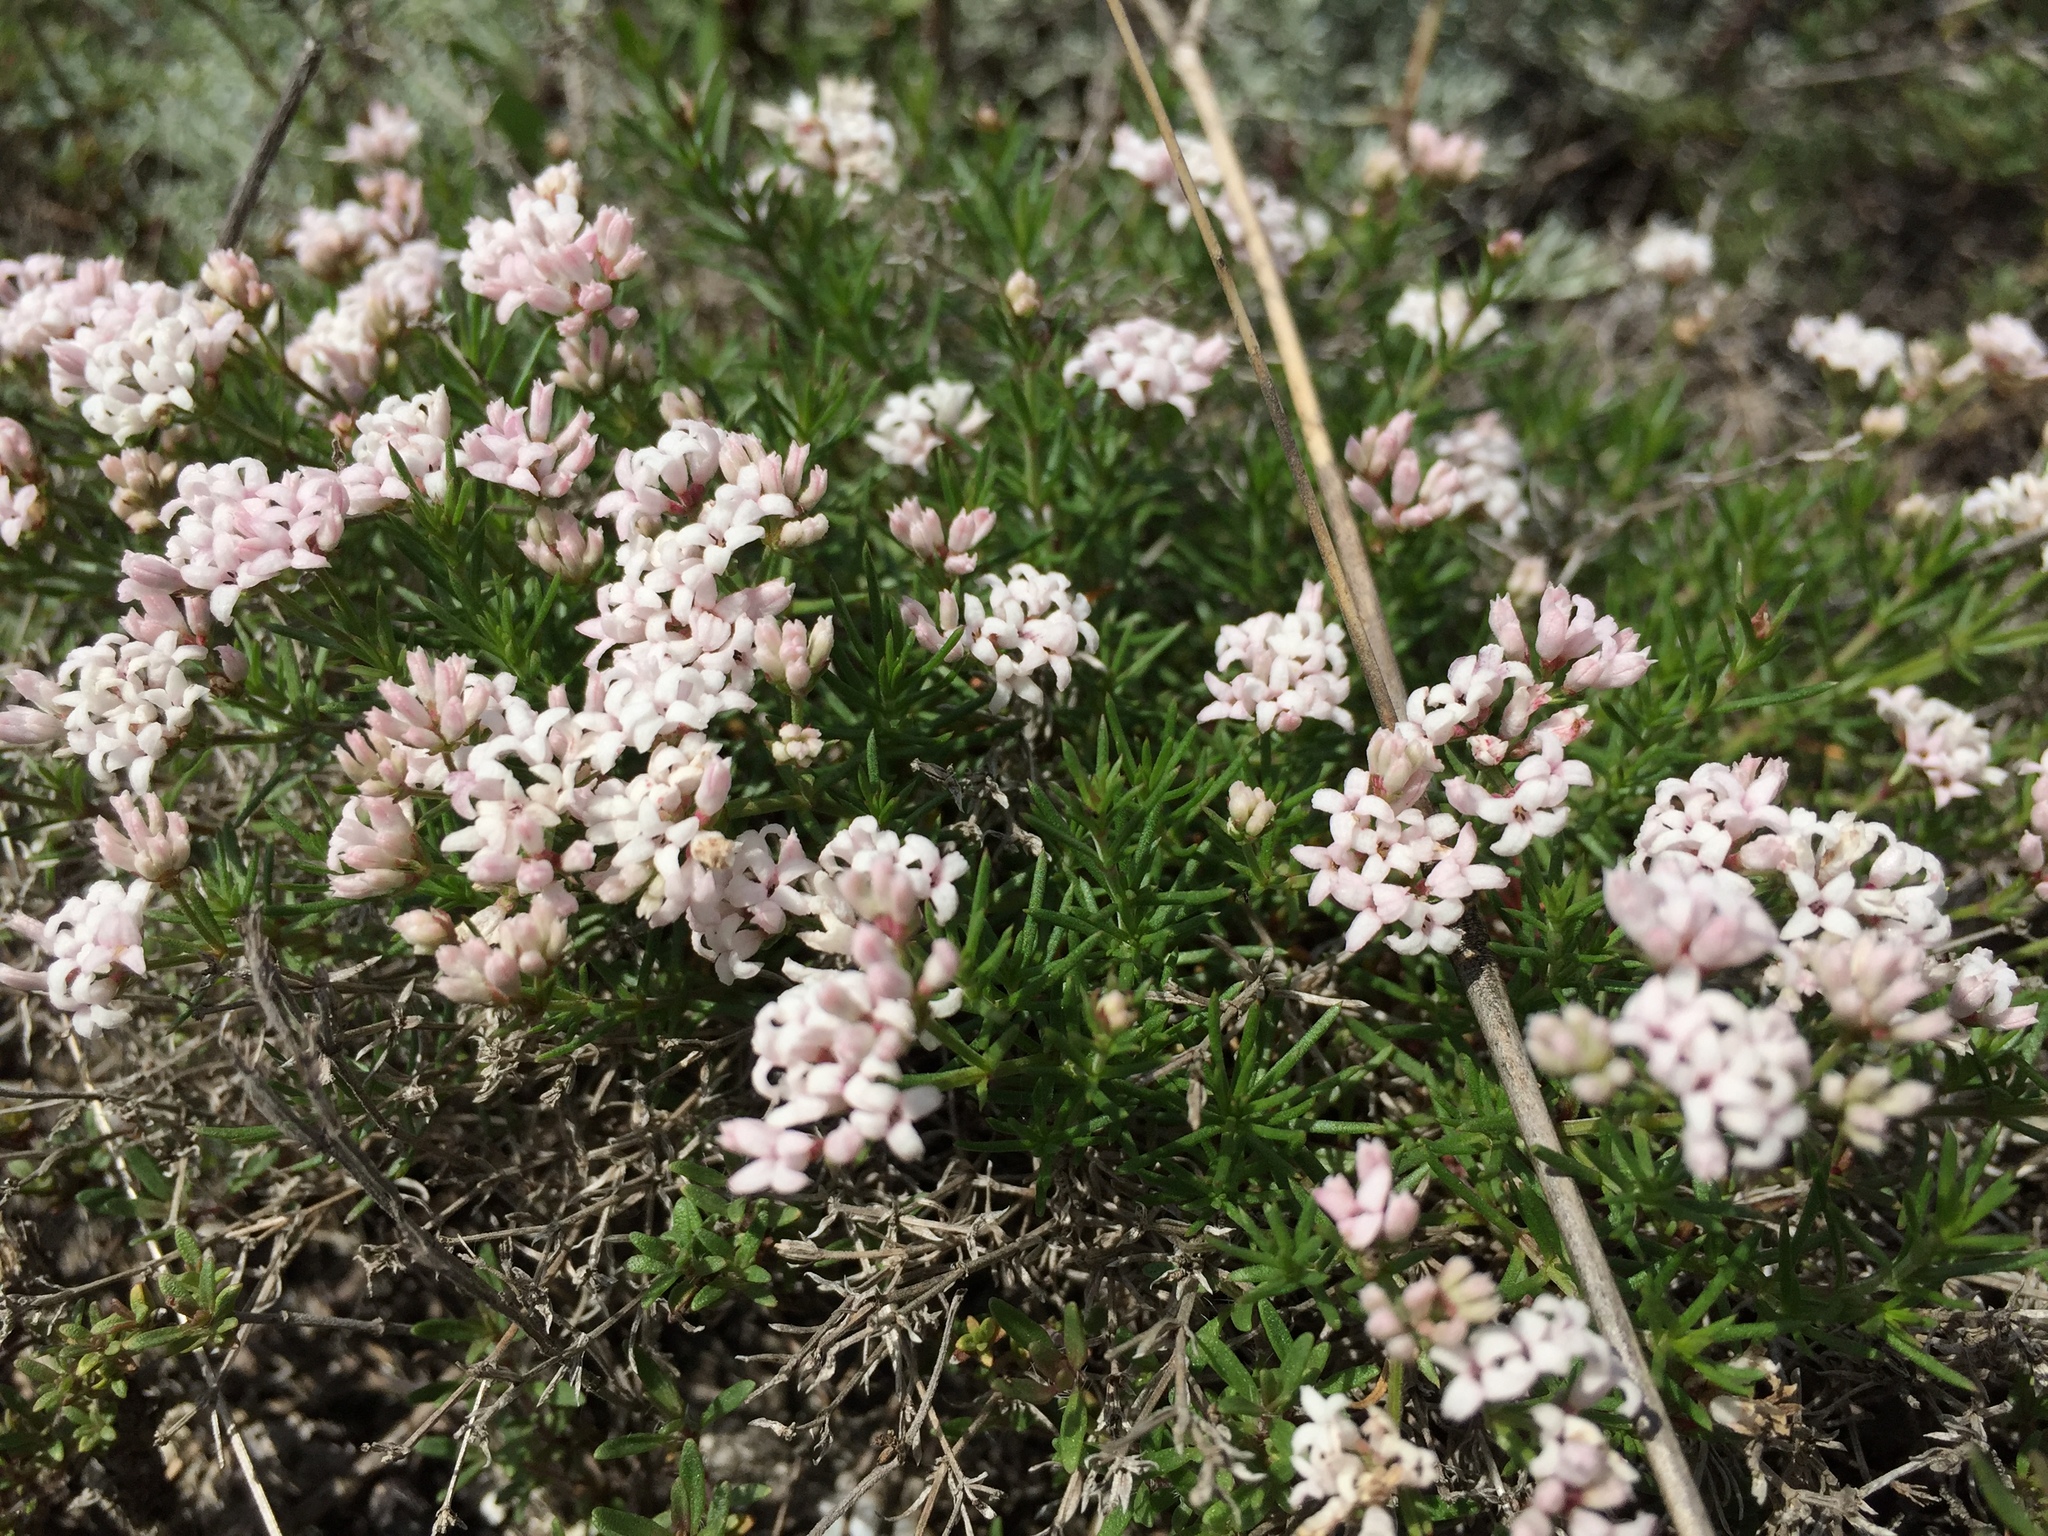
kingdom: Plantae
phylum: Tracheophyta
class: Magnoliopsida
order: Gentianales
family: Rubiaceae
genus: Cynanchica
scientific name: Cynanchica tephrocarpa
